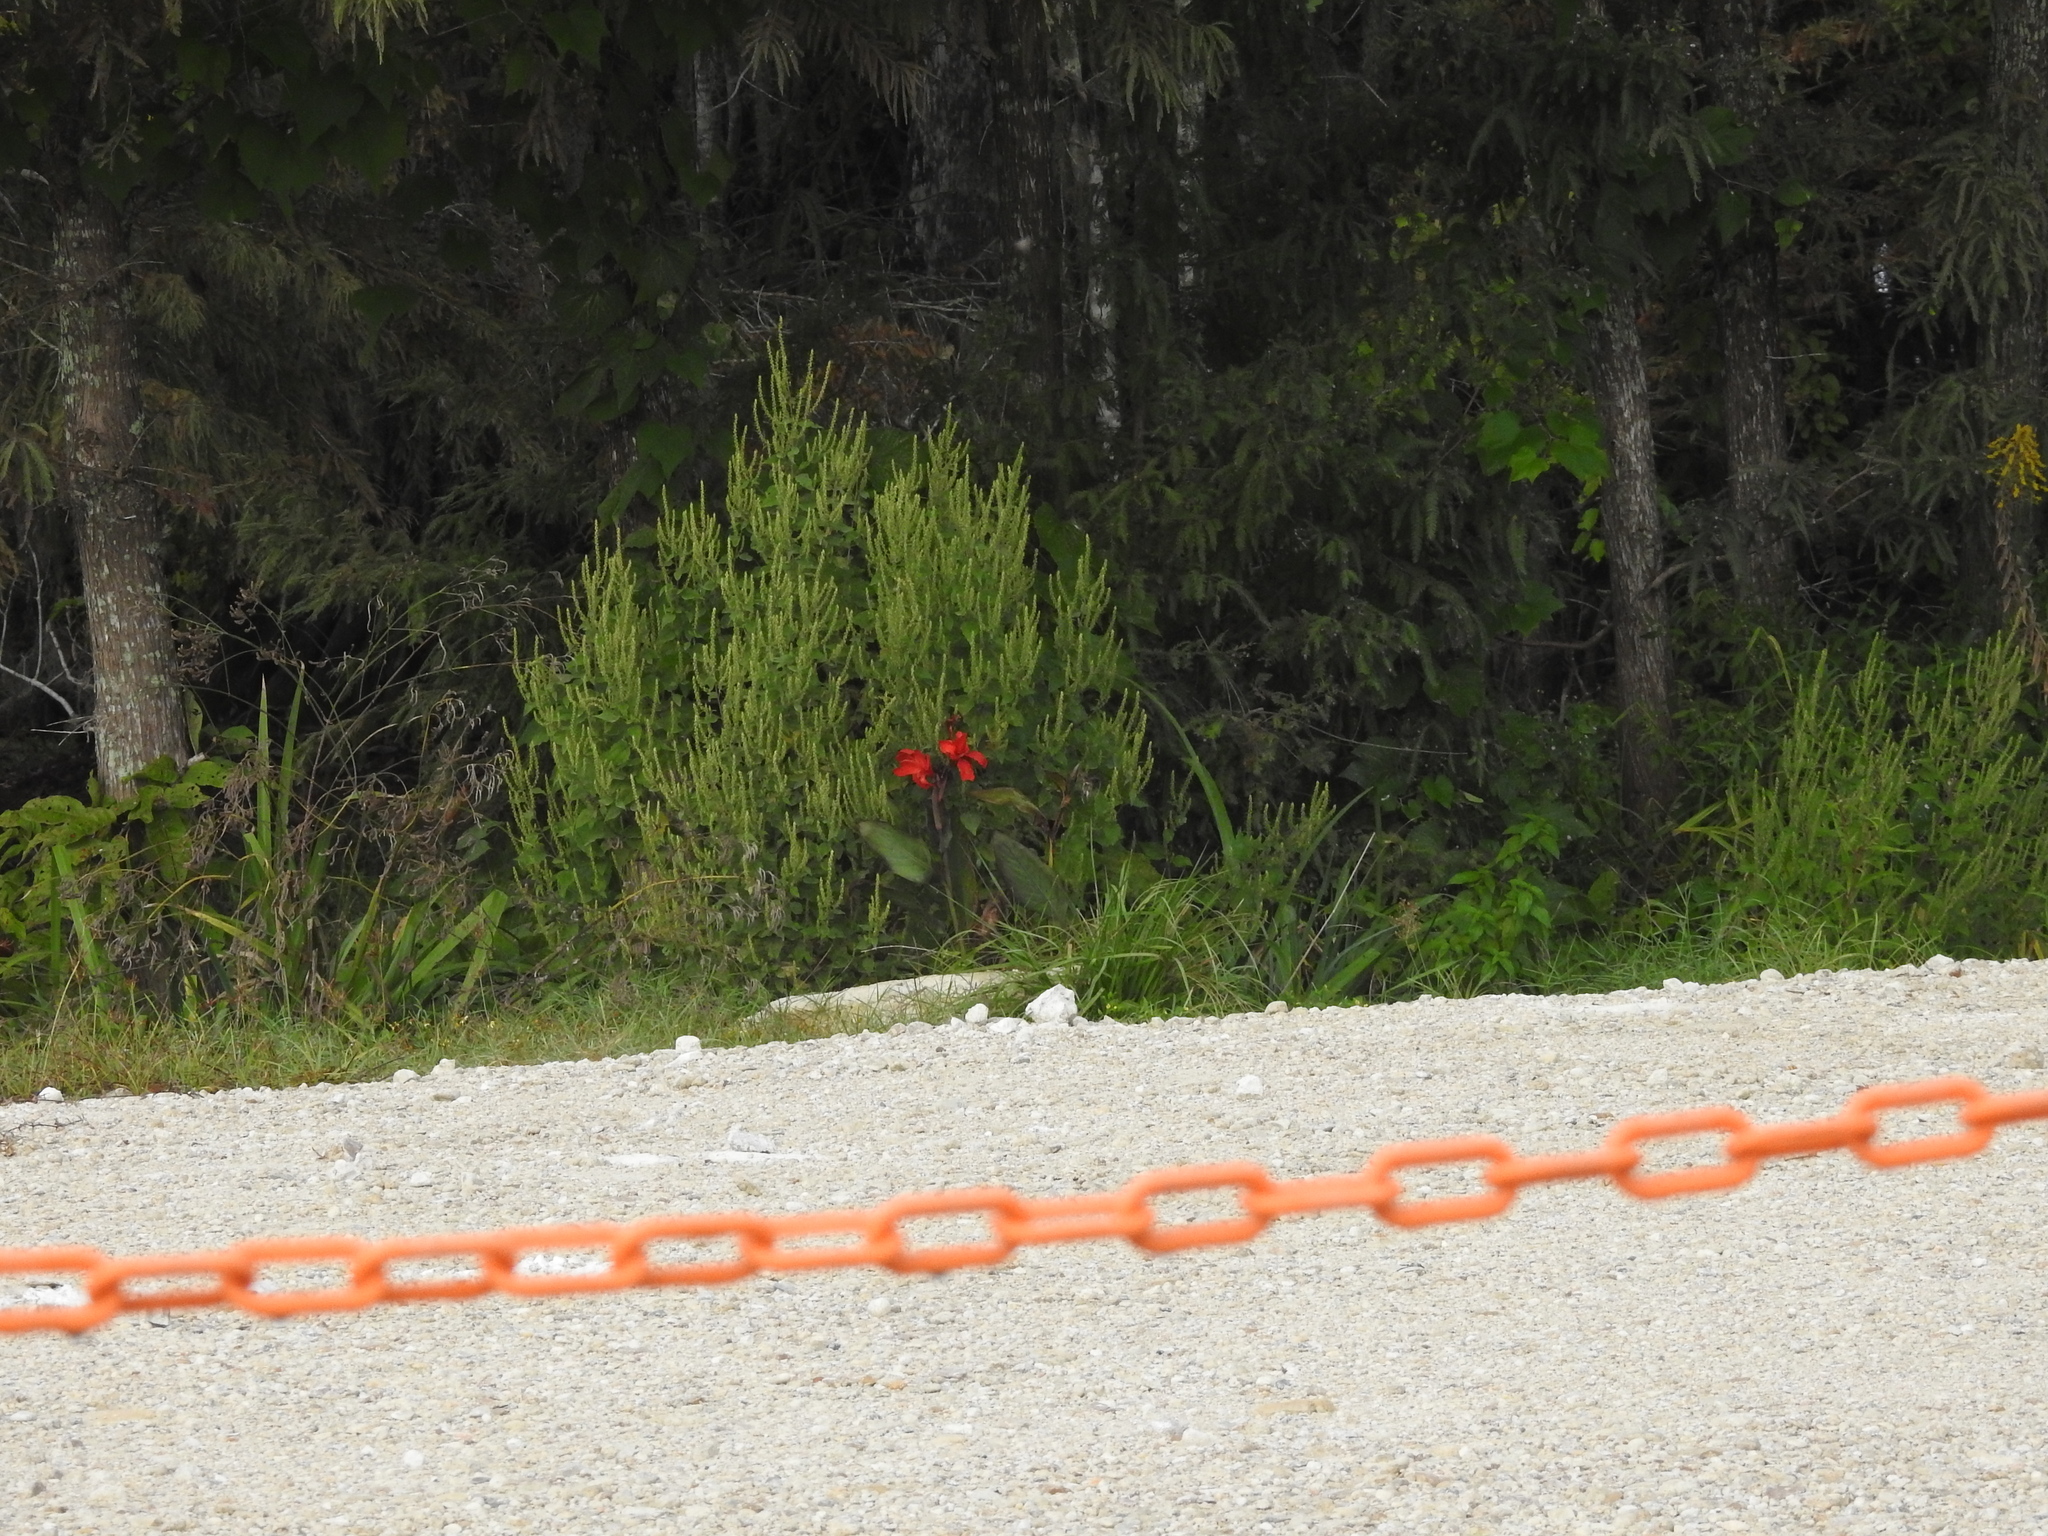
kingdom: Plantae
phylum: Tracheophyta
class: Liliopsida
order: Zingiberales
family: Cannaceae
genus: Canna
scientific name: Canna hybrida
